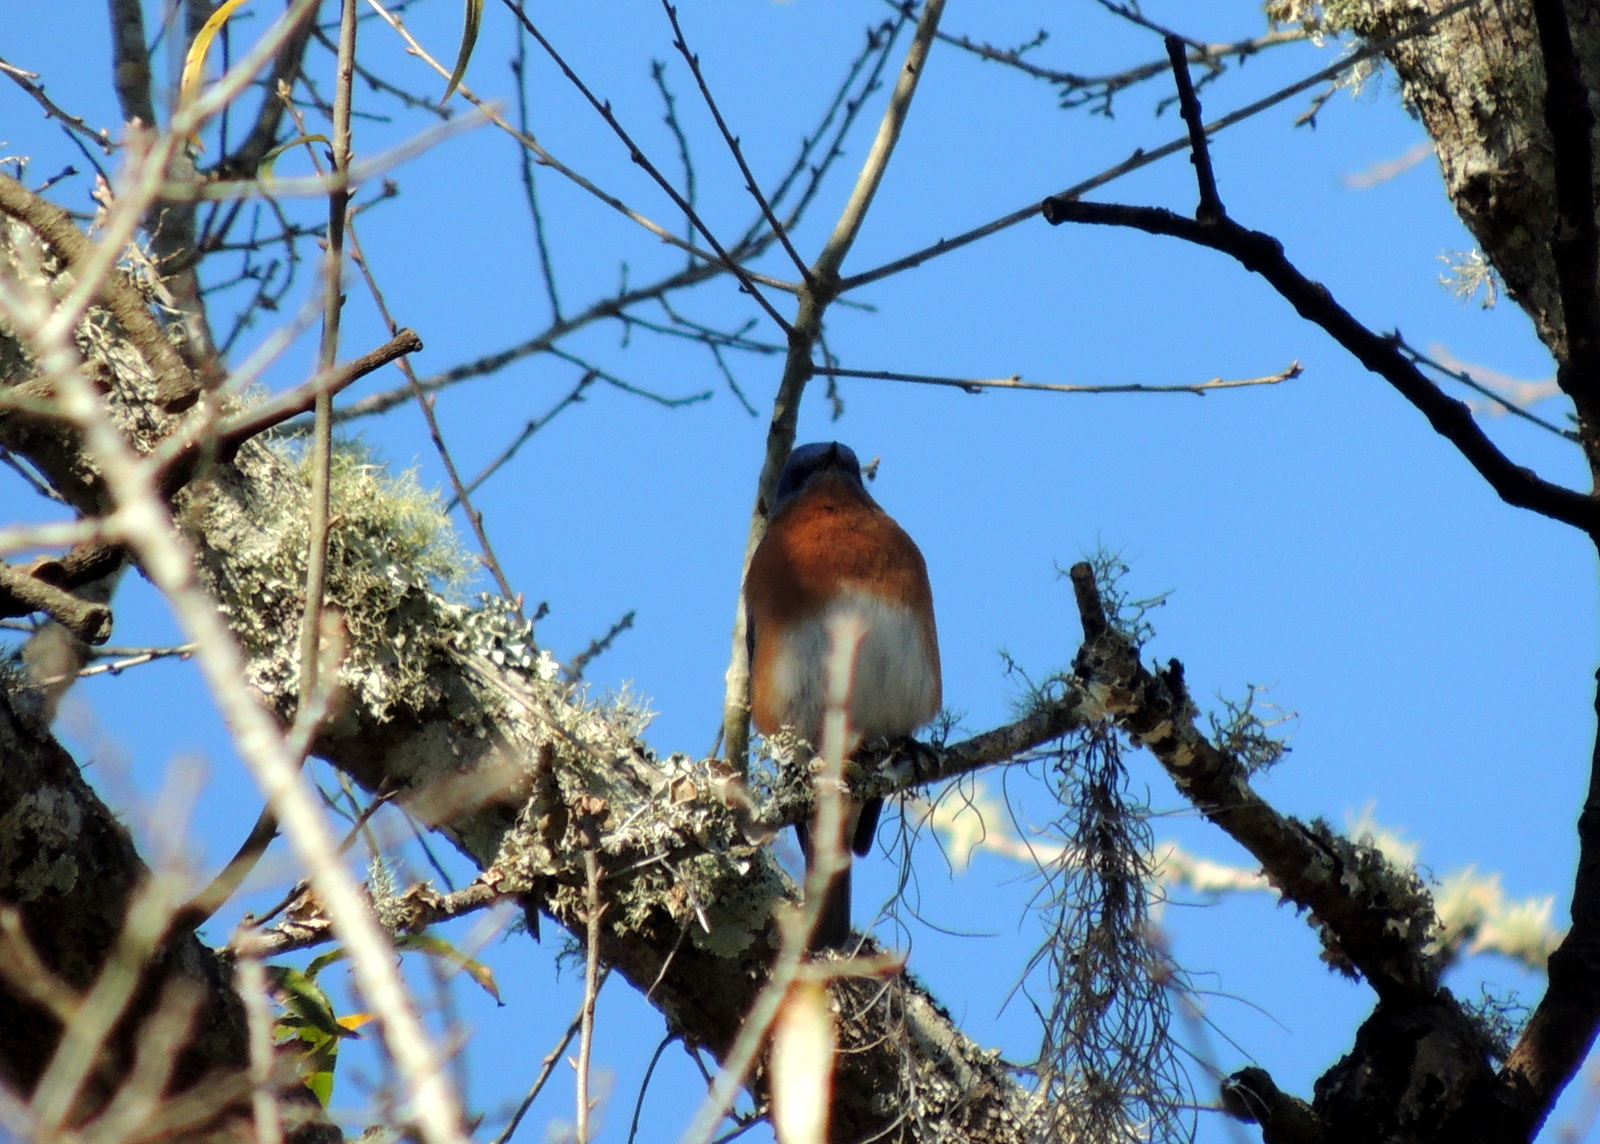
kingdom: Animalia
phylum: Chordata
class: Aves
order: Passeriformes
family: Turdidae
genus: Sialia
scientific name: Sialia sialis
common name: Eastern bluebird
